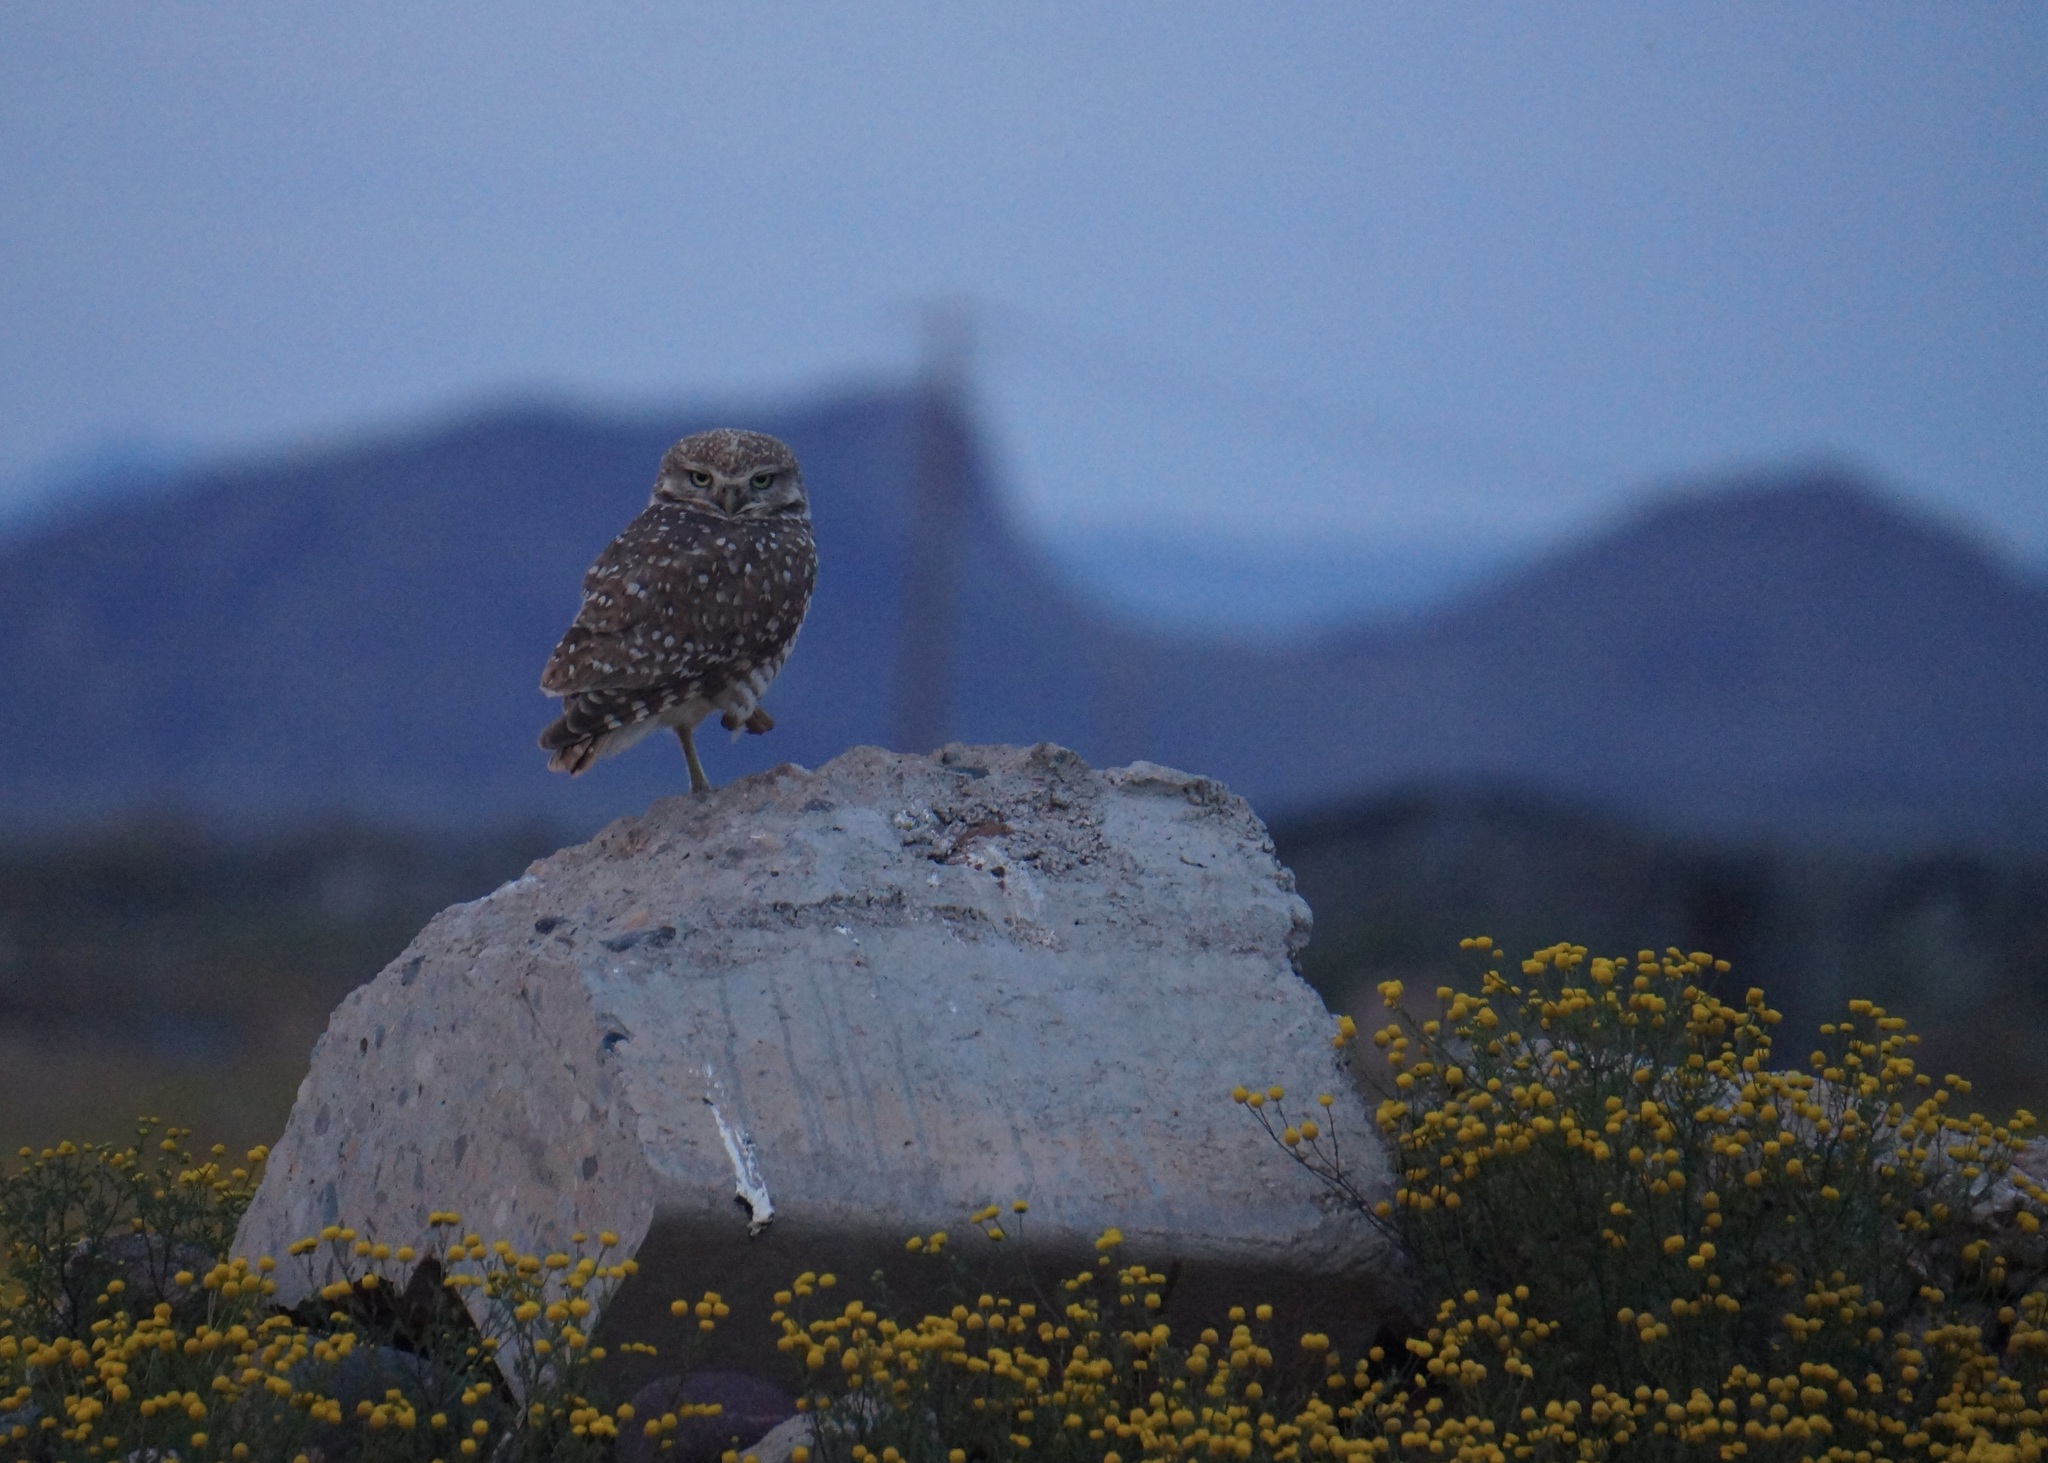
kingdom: Animalia
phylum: Chordata
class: Aves
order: Strigiformes
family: Strigidae
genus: Athene
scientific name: Athene cunicularia
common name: Burrowing owl
